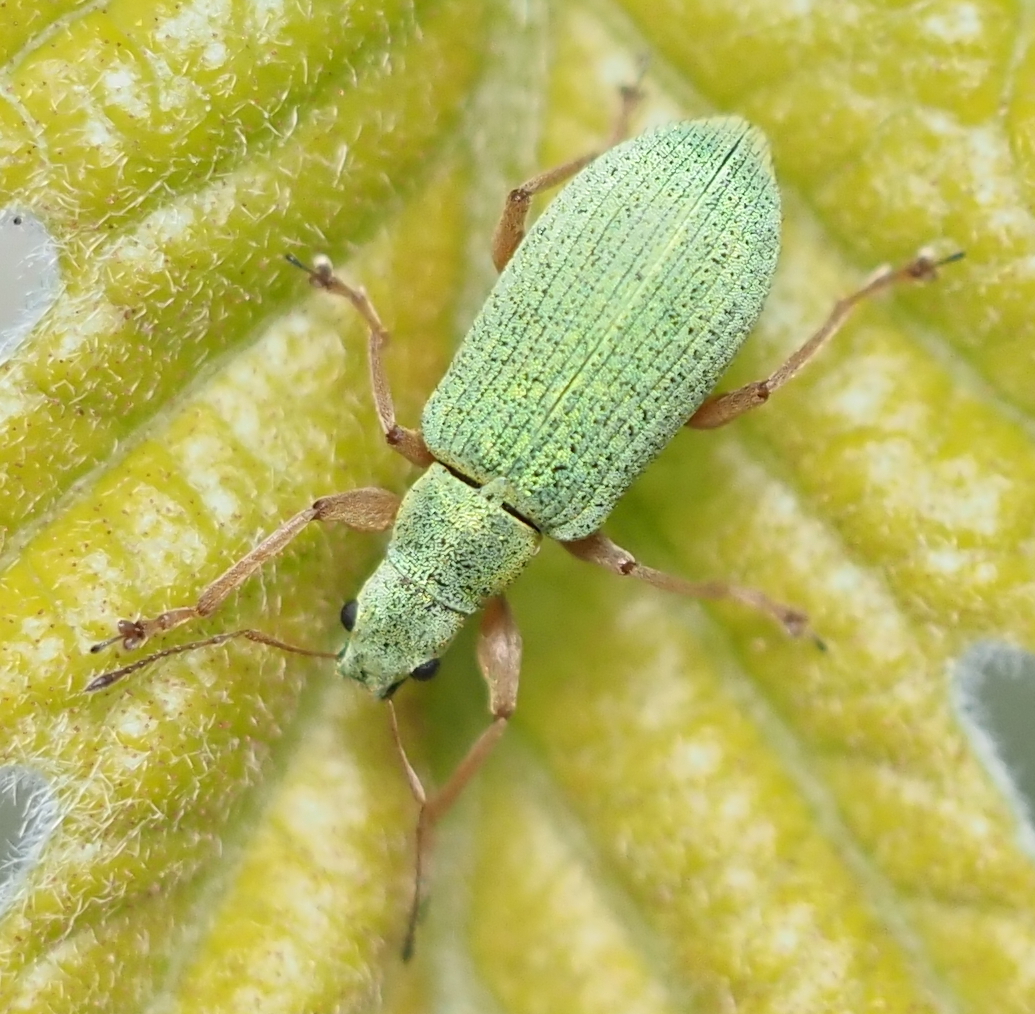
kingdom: Animalia
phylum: Arthropoda
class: Insecta
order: Coleoptera
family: Curculionidae
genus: Polydrusus
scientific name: Polydrusus impressifrons
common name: Weevil
